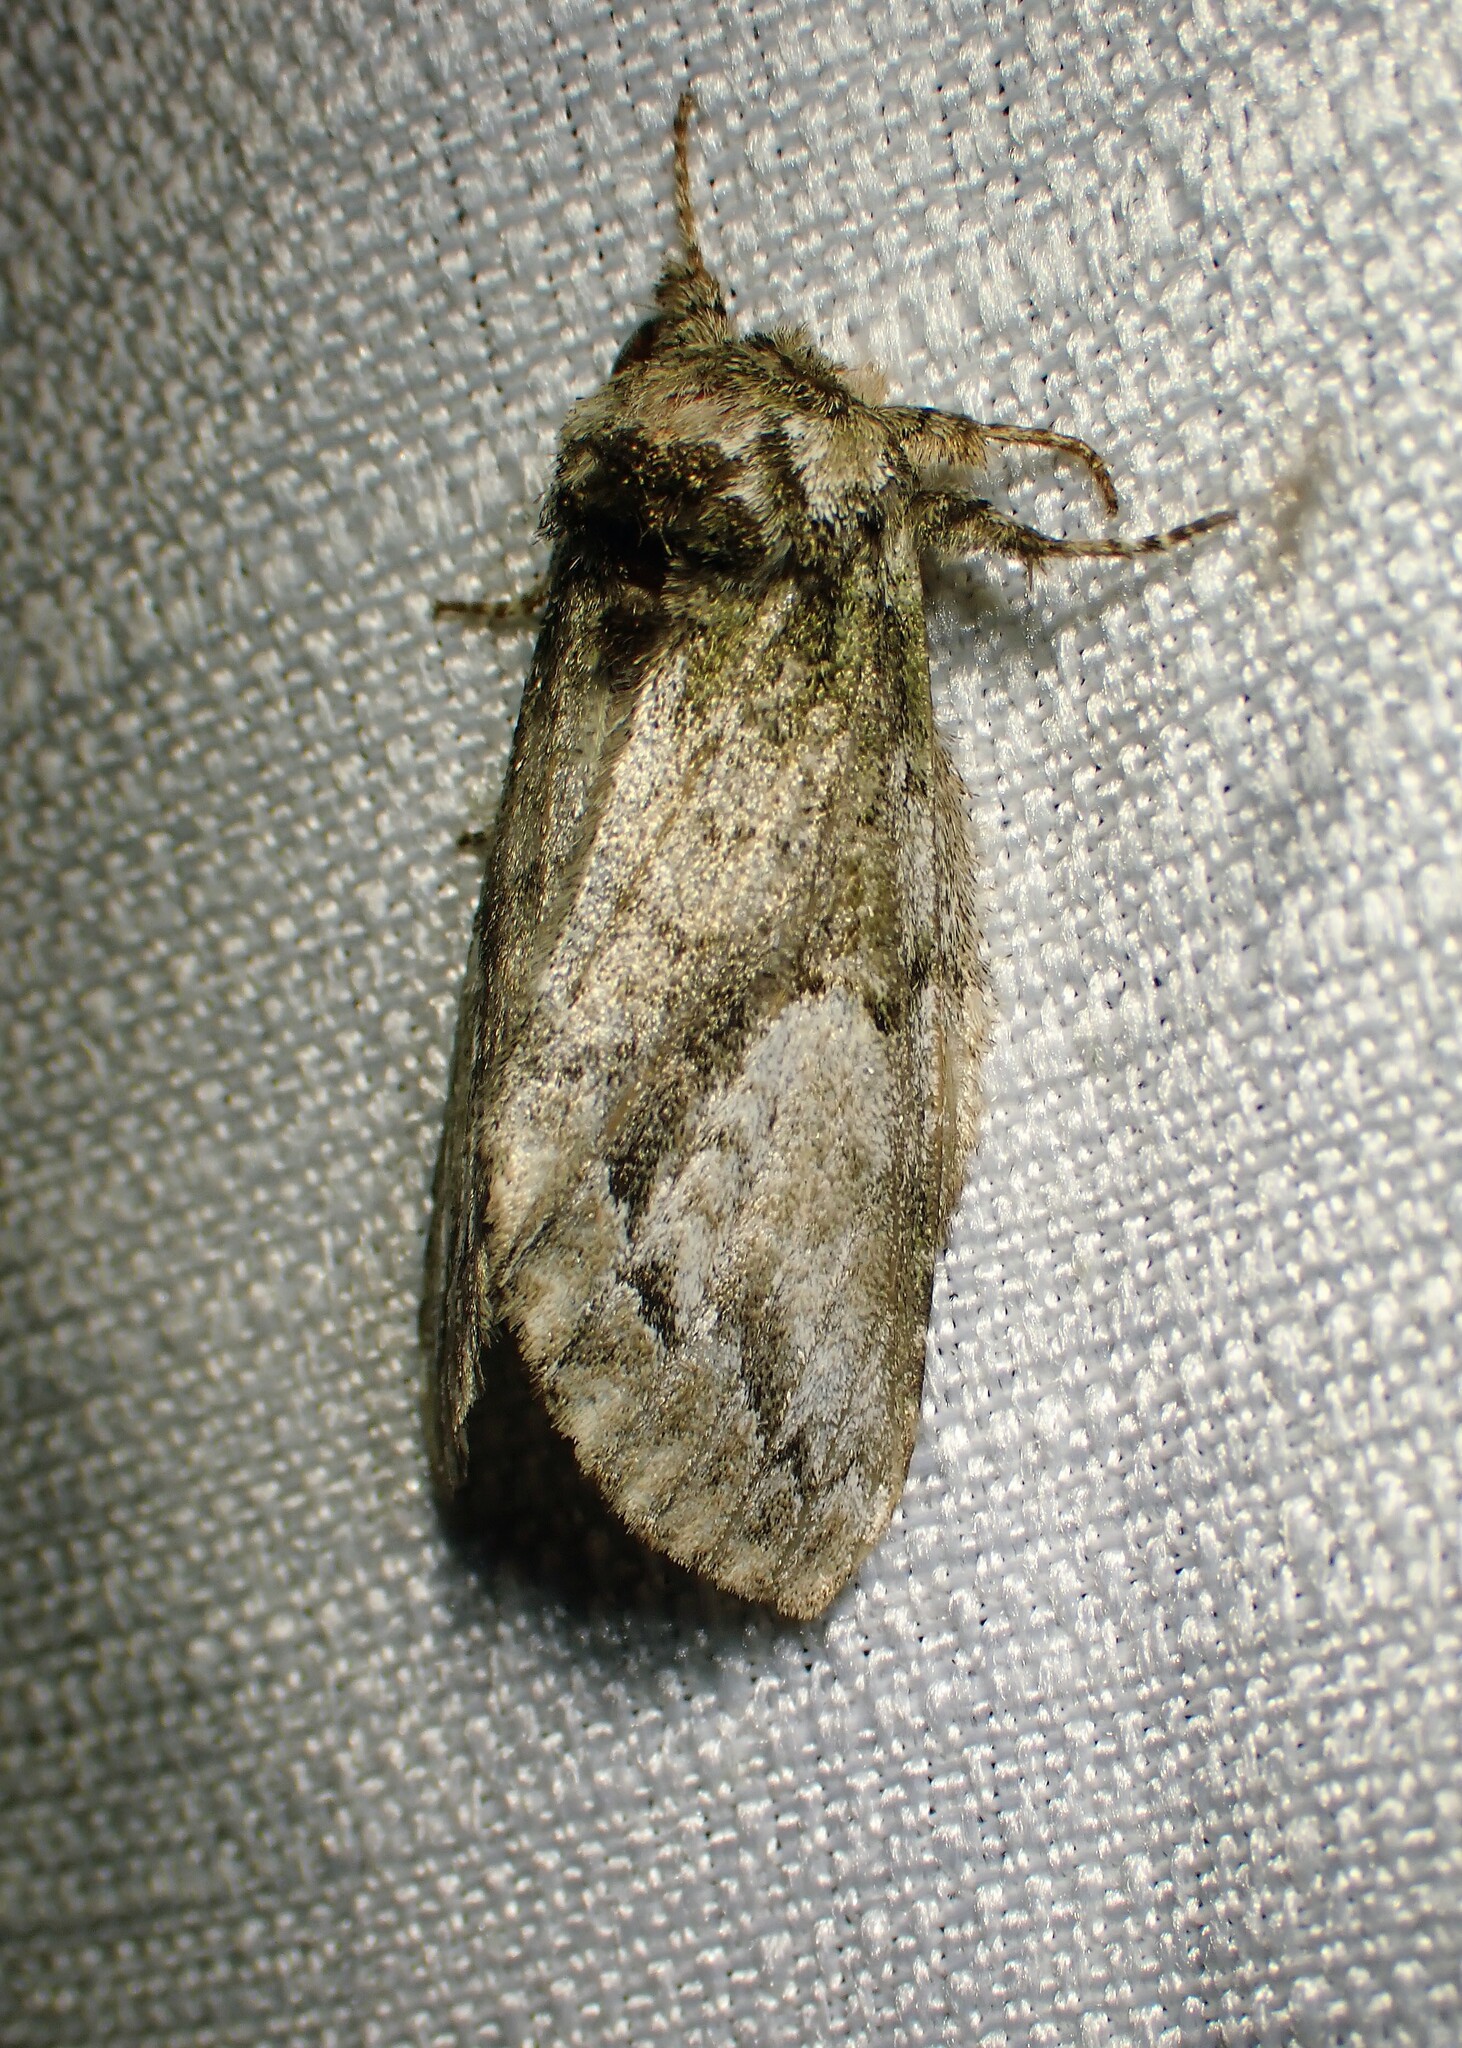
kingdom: Animalia
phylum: Arthropoda
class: Insecta
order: Lepidoptera
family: Notodontidae
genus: Heterocampa
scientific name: Heterocampa
